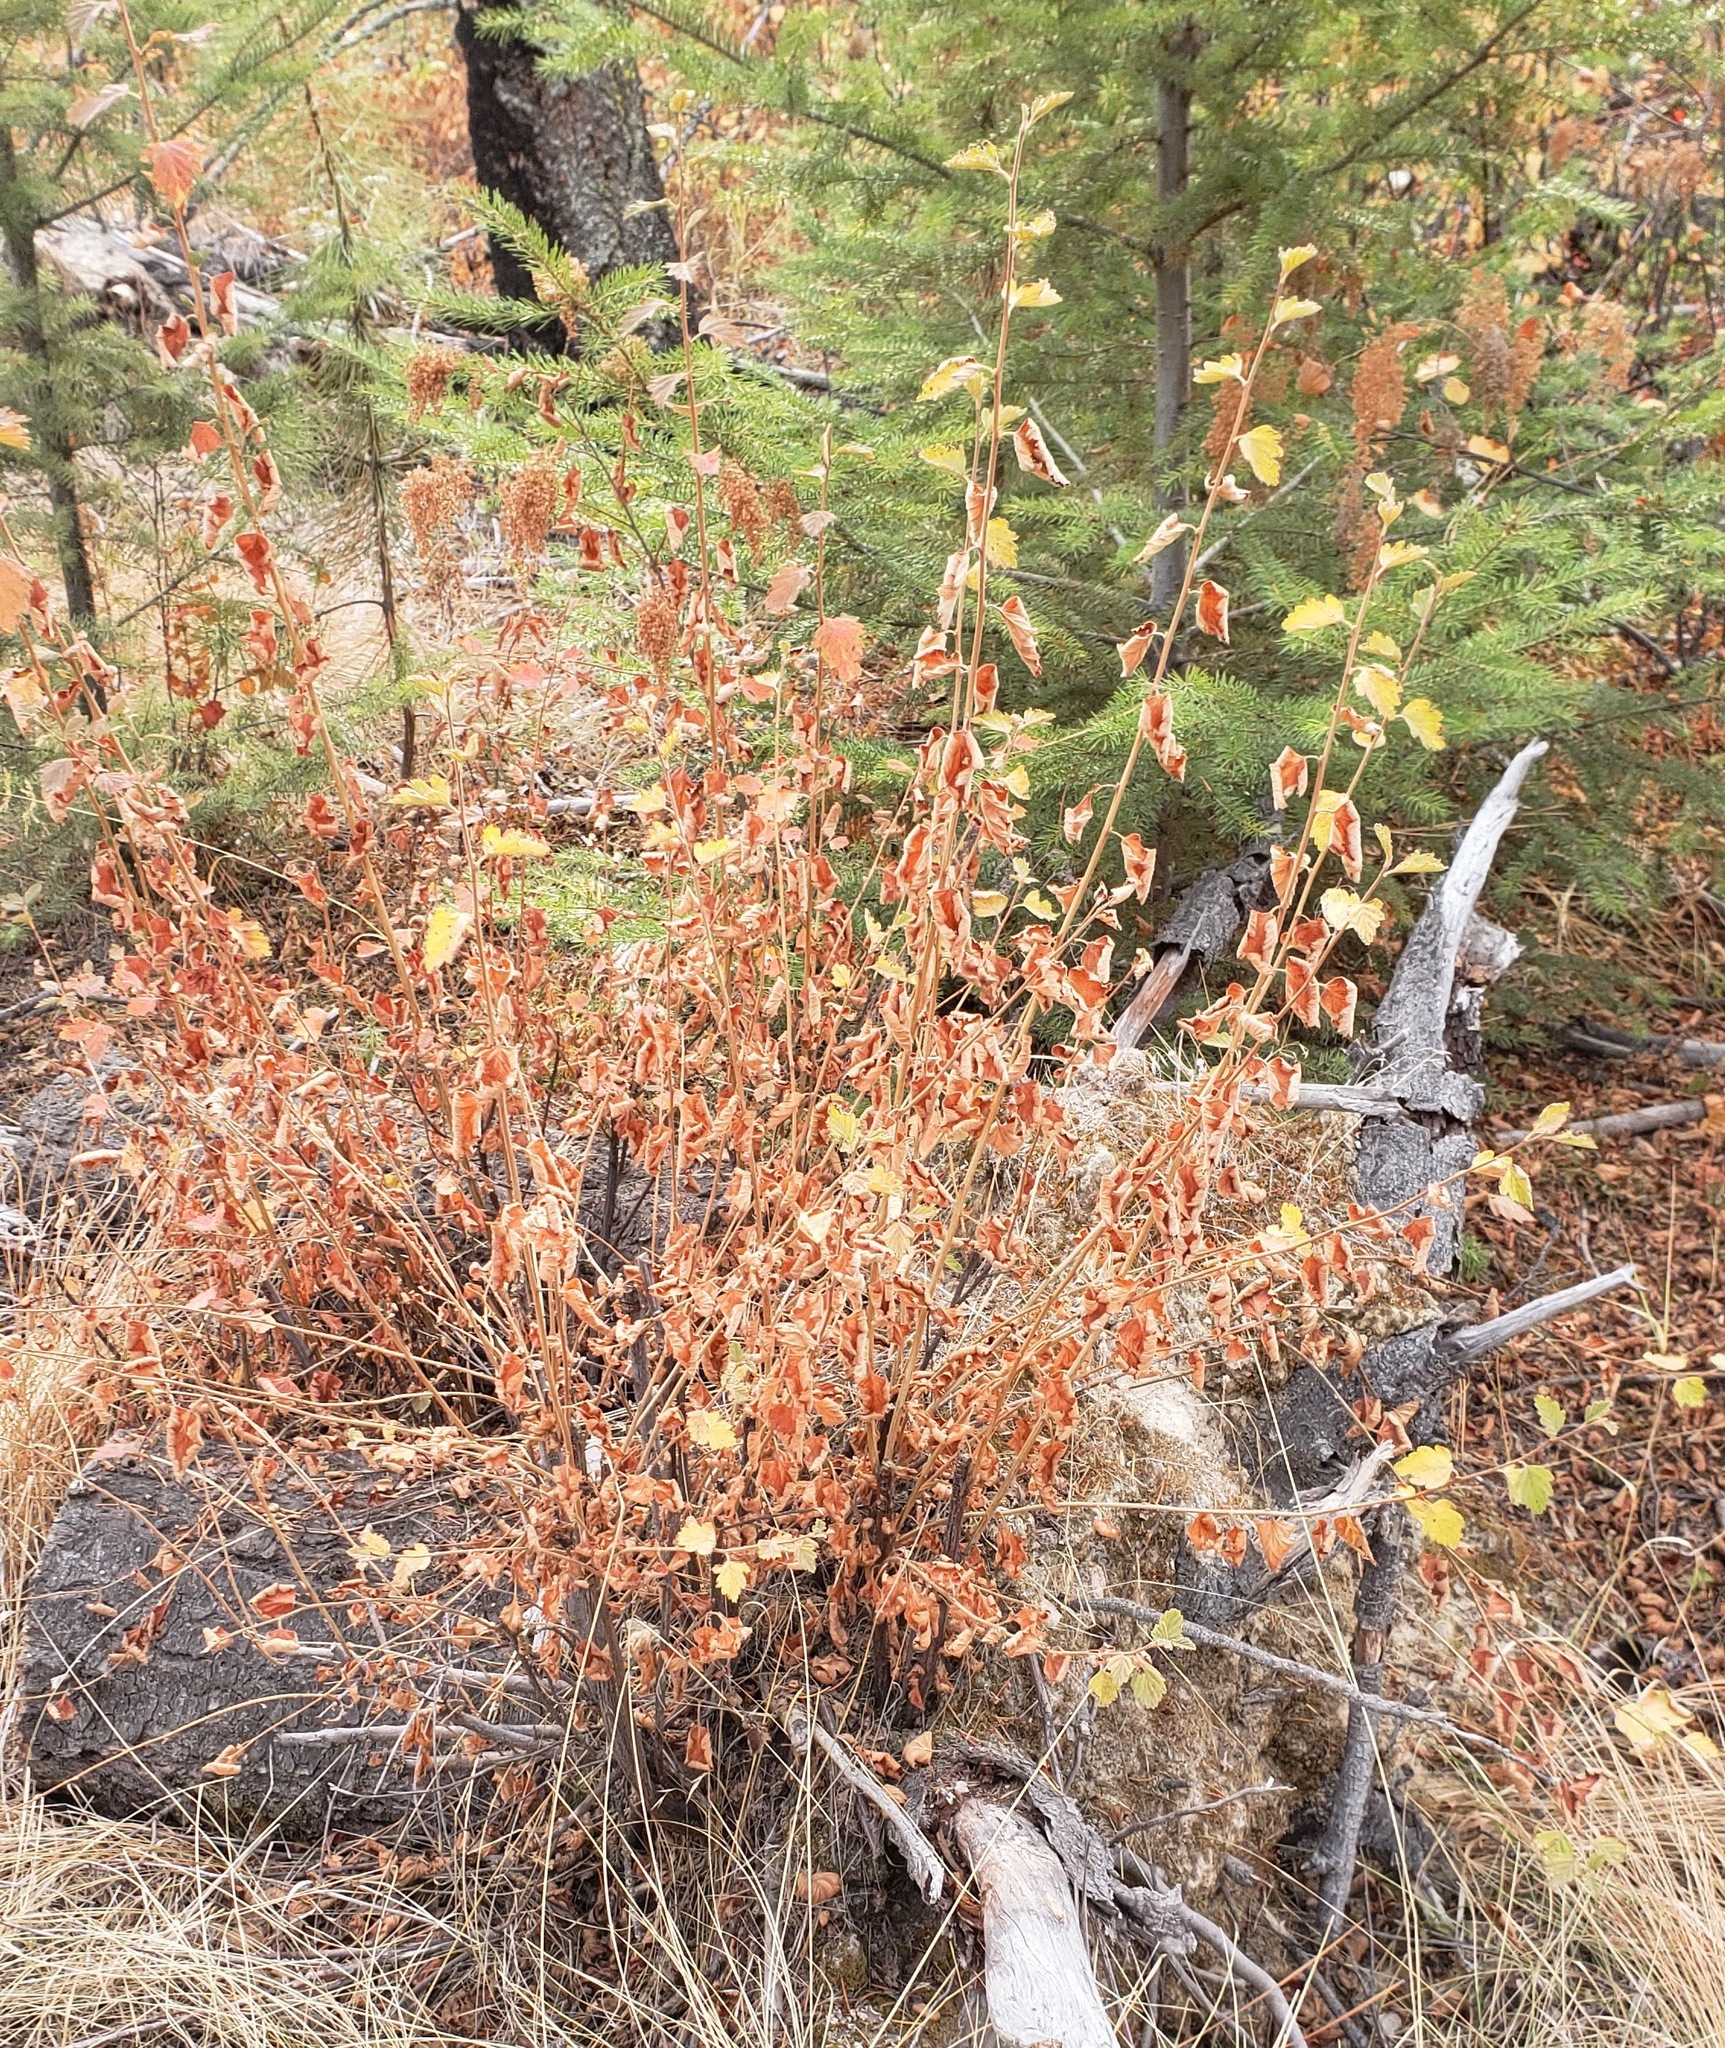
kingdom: Plantae
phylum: Tracheophyta
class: Magnoliopsida
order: Rosales
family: Rosaceae
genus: Holodiscus
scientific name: Holodiscus discolor
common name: Oceanspray
